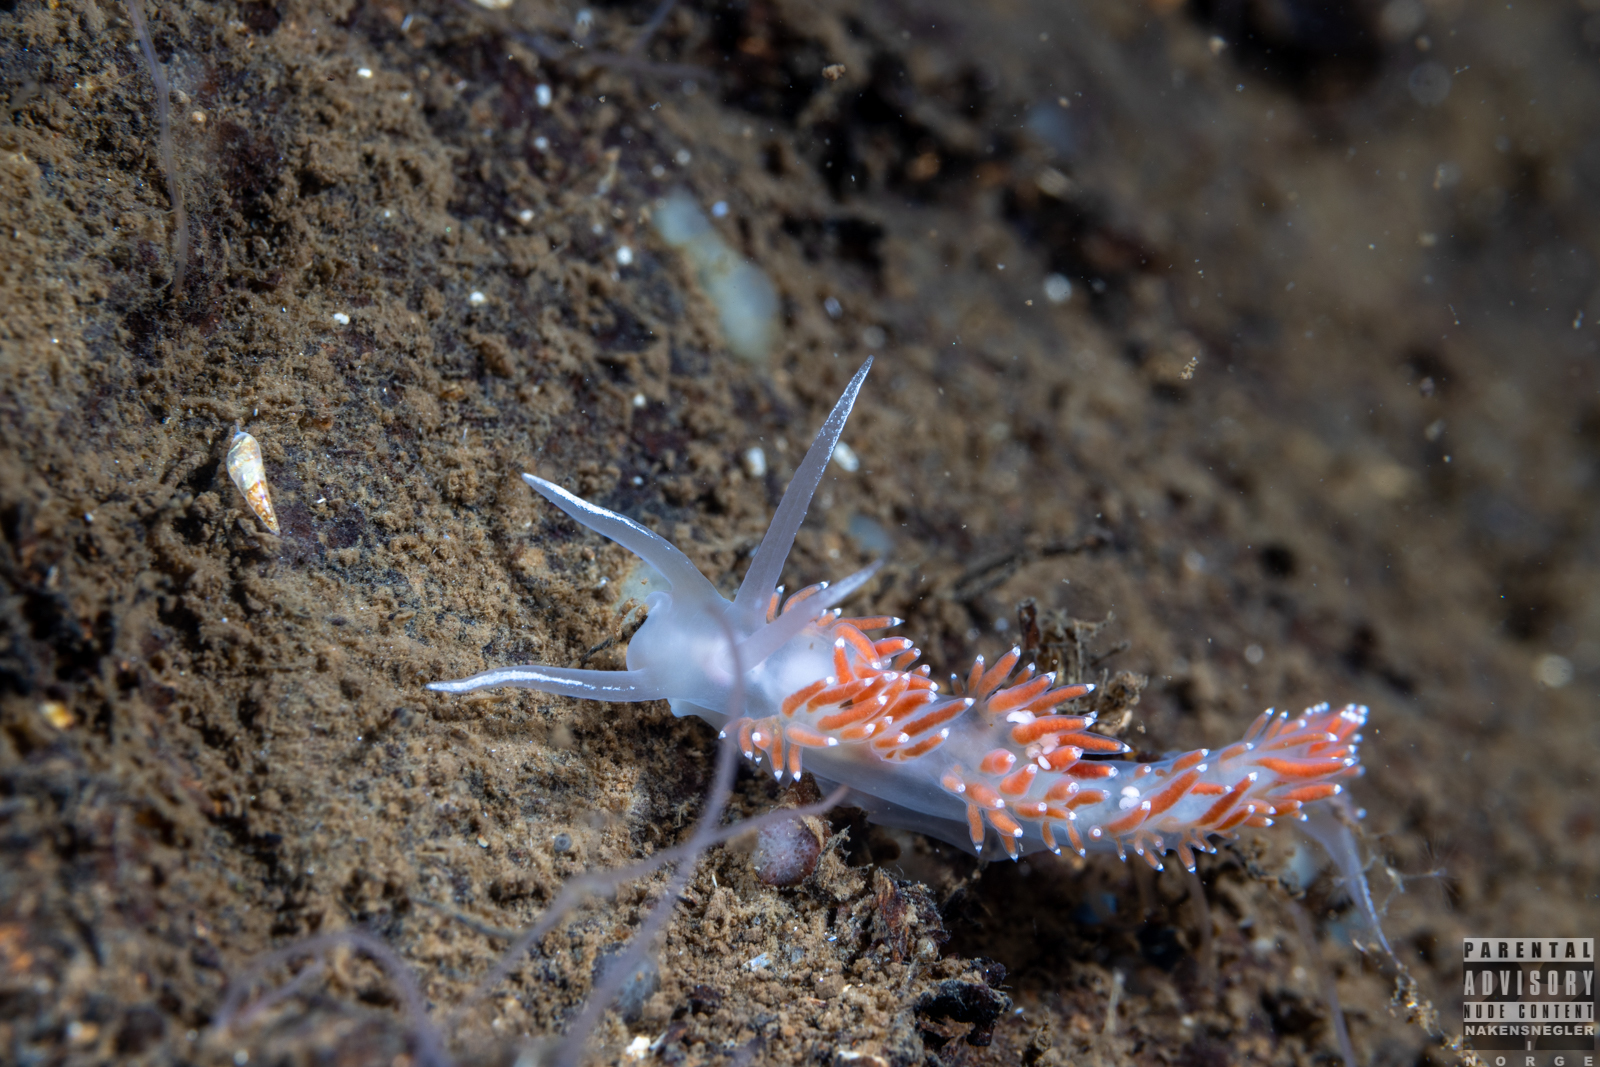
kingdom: Animalia
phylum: Mollusca
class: Gastropoda
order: Nudibranchia
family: Coryphellidae
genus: Coryphella
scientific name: Coryphella verrucosa
